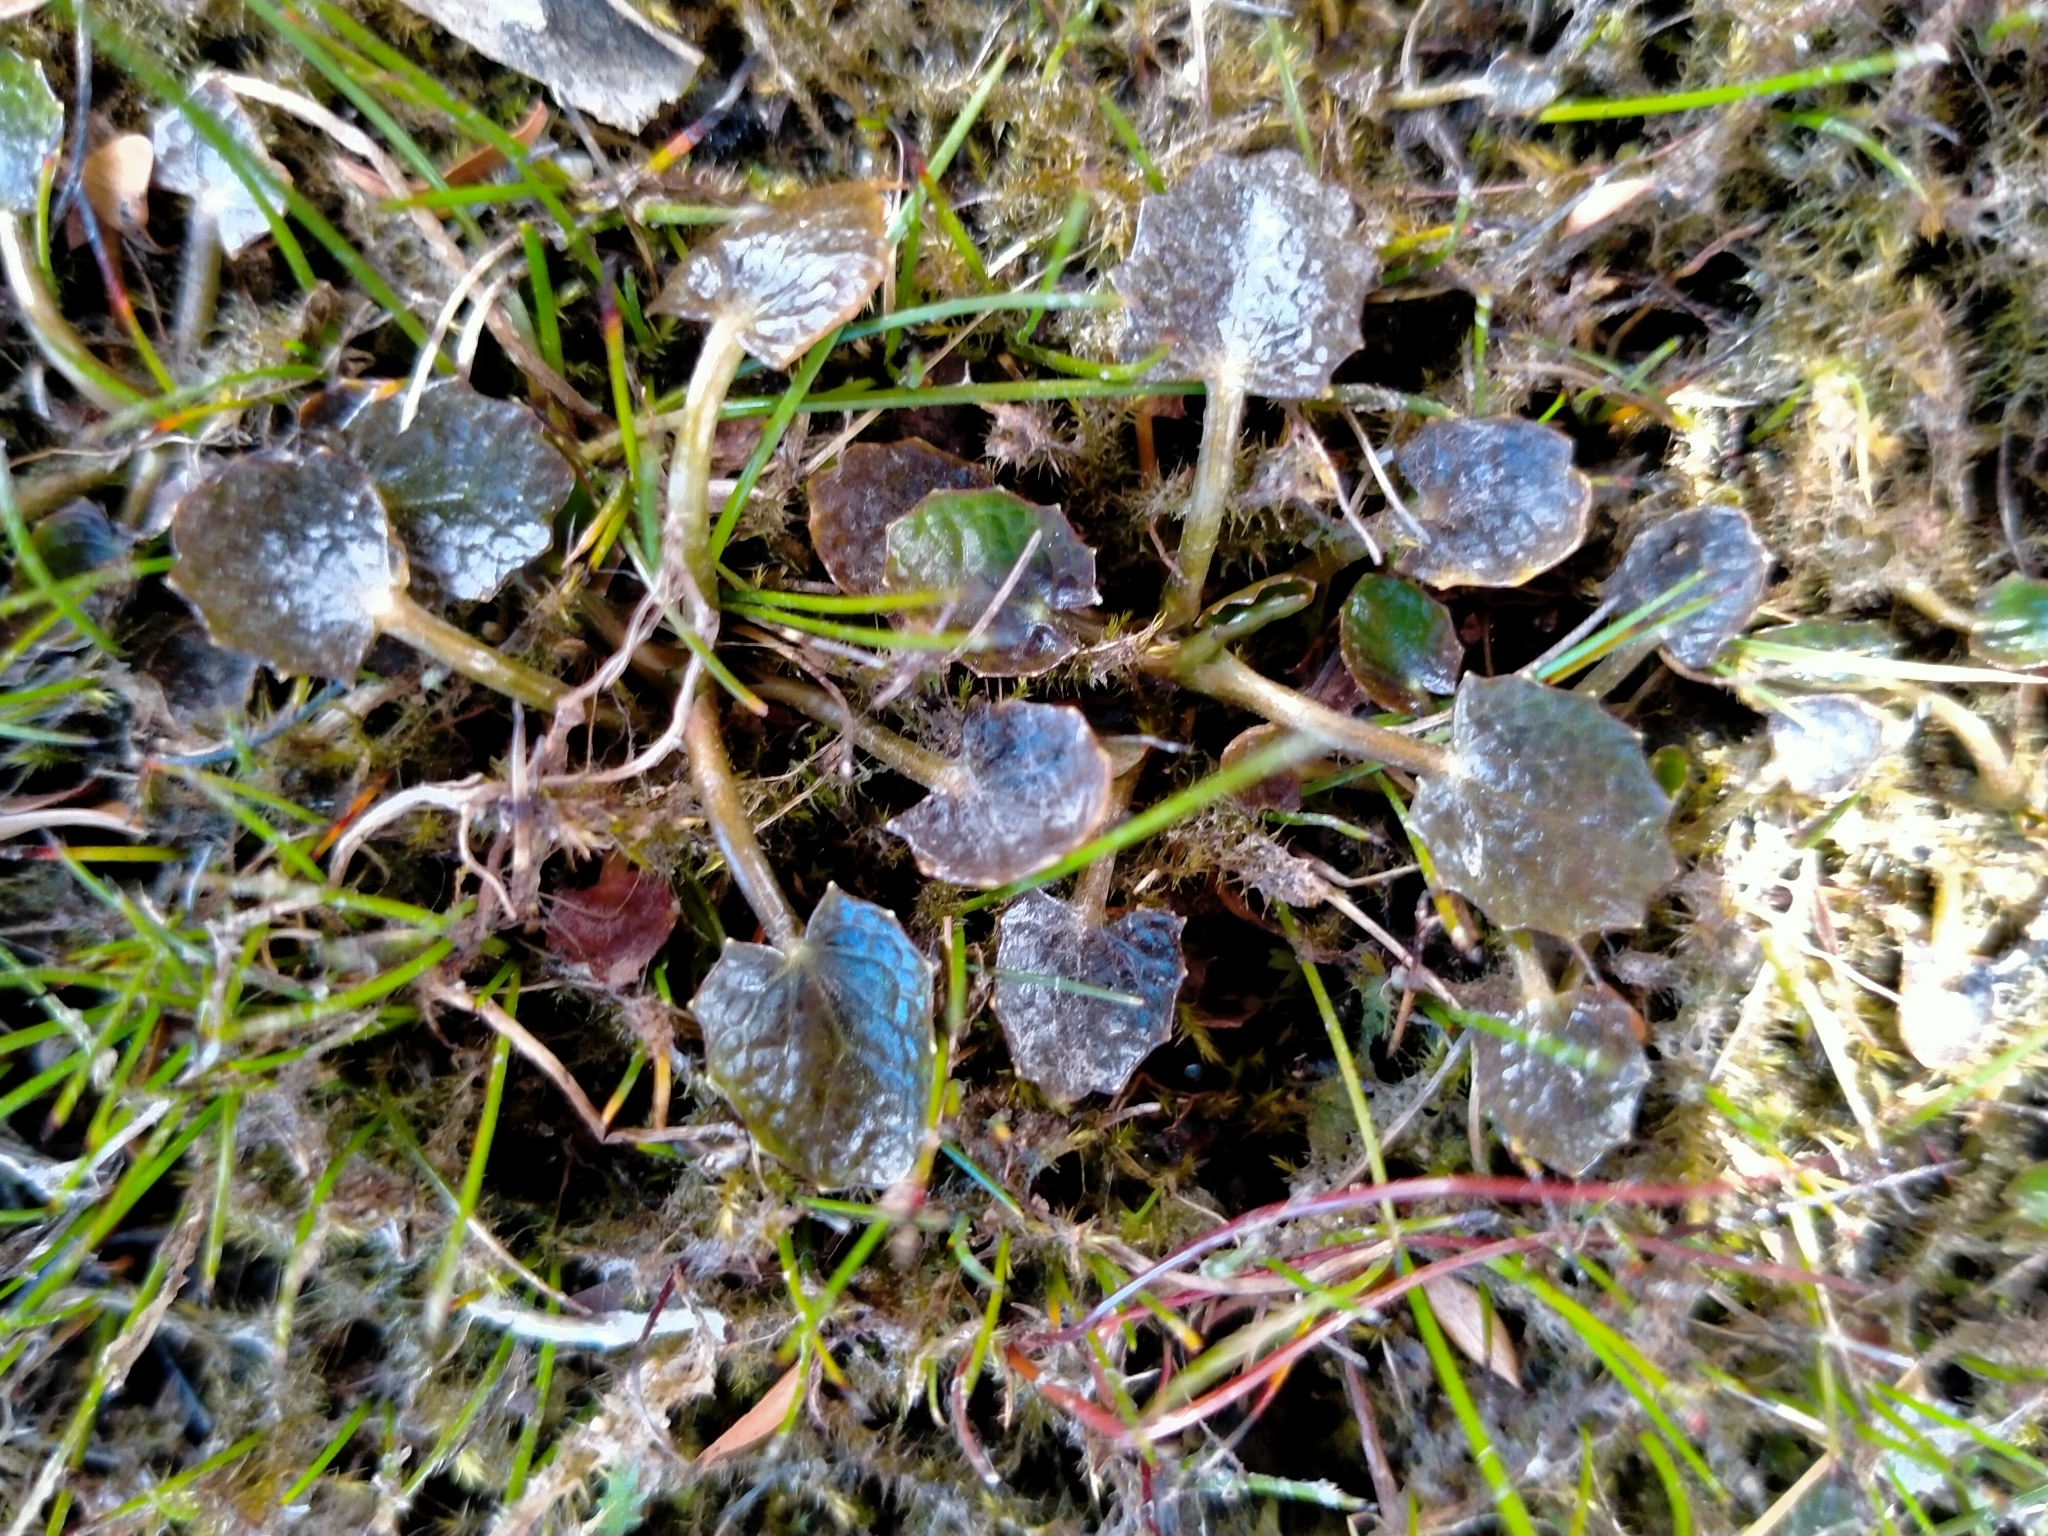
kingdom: Plantae
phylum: Tracheophyta
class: Magnoliopsida
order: Apiales
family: Apiaceae
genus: Centella
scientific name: Centella uniflora
